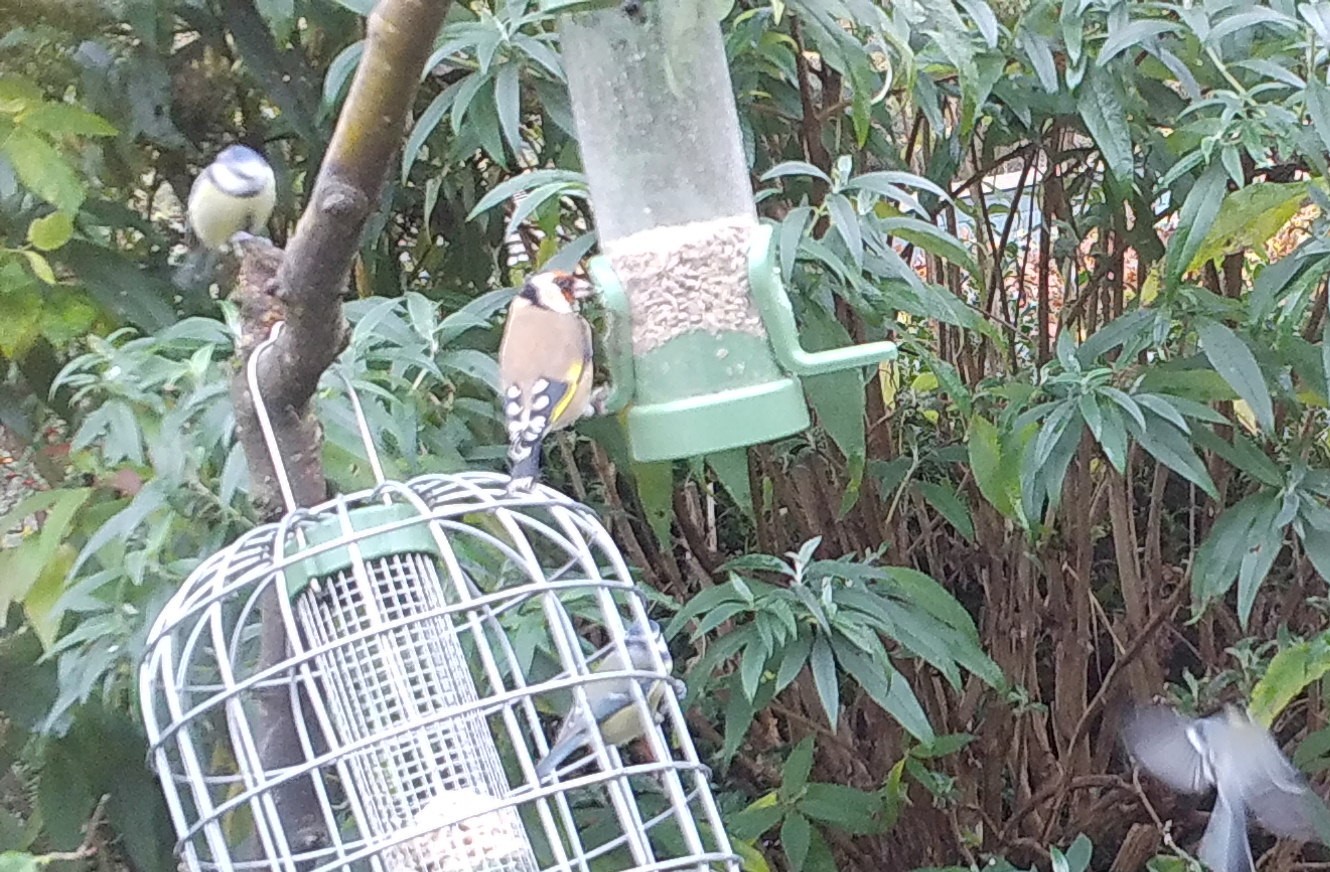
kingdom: Animalia
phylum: Chordata
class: Aves
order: Passeriformes
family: Fringillidae
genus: Carduelis
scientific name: Carduelis carduelis
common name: European goldfinch
